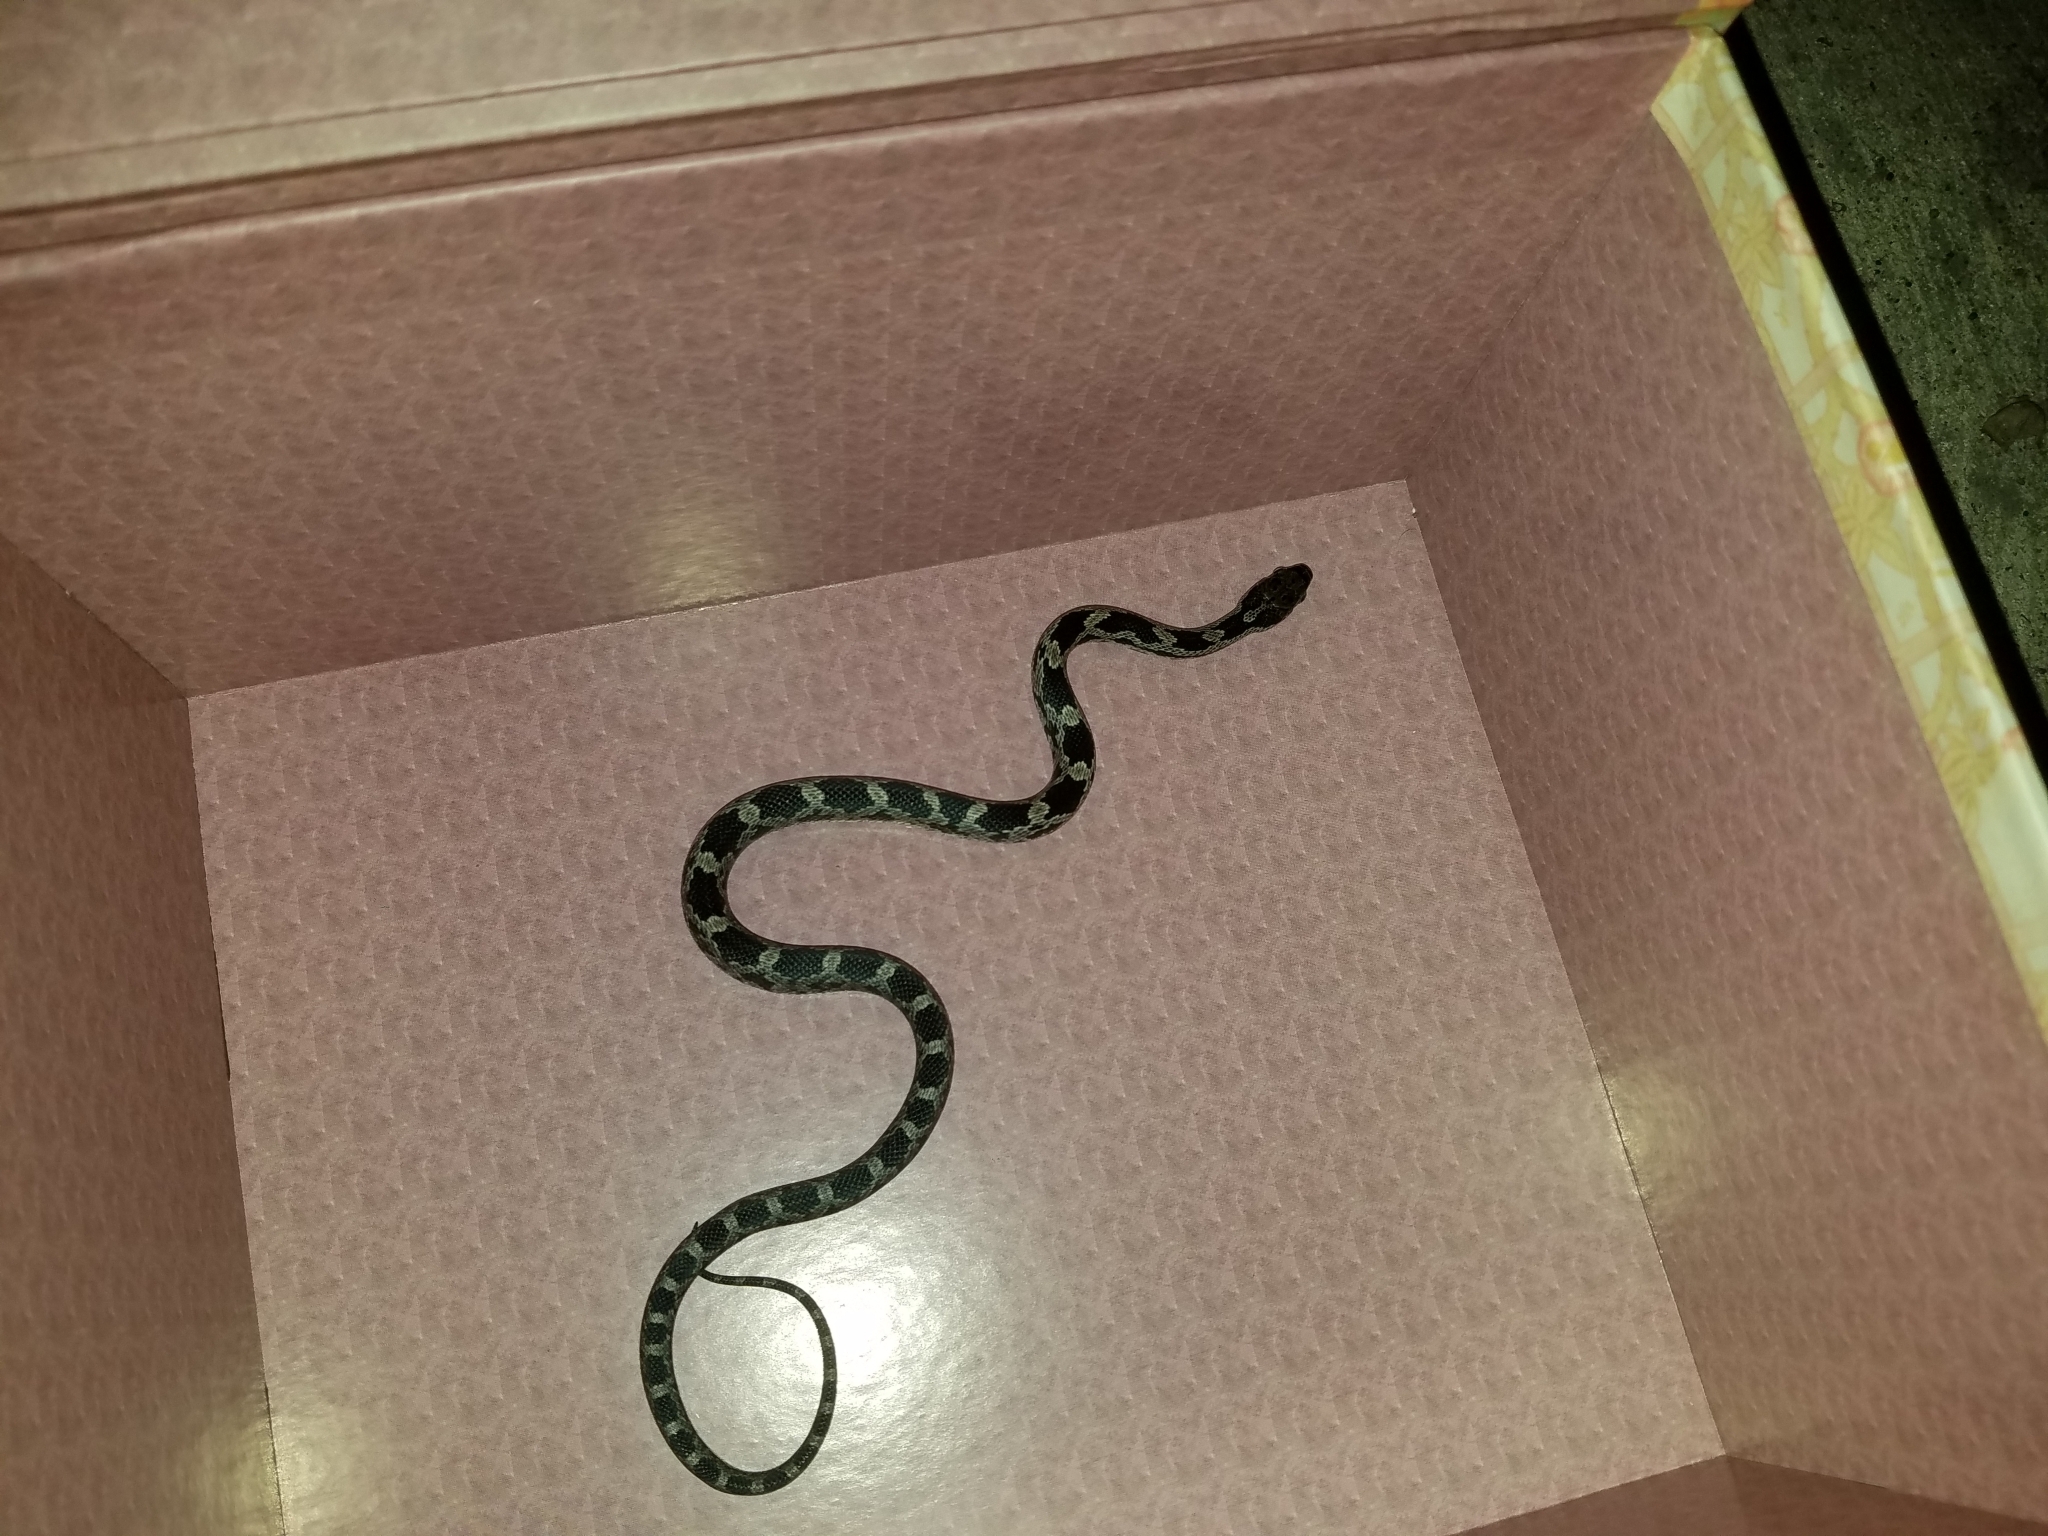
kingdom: Animalia
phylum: Chordata
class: Squamata
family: Colubridae
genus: Pantherophis
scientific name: Pantherophis alleghaniensis
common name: Eastern rat snake
